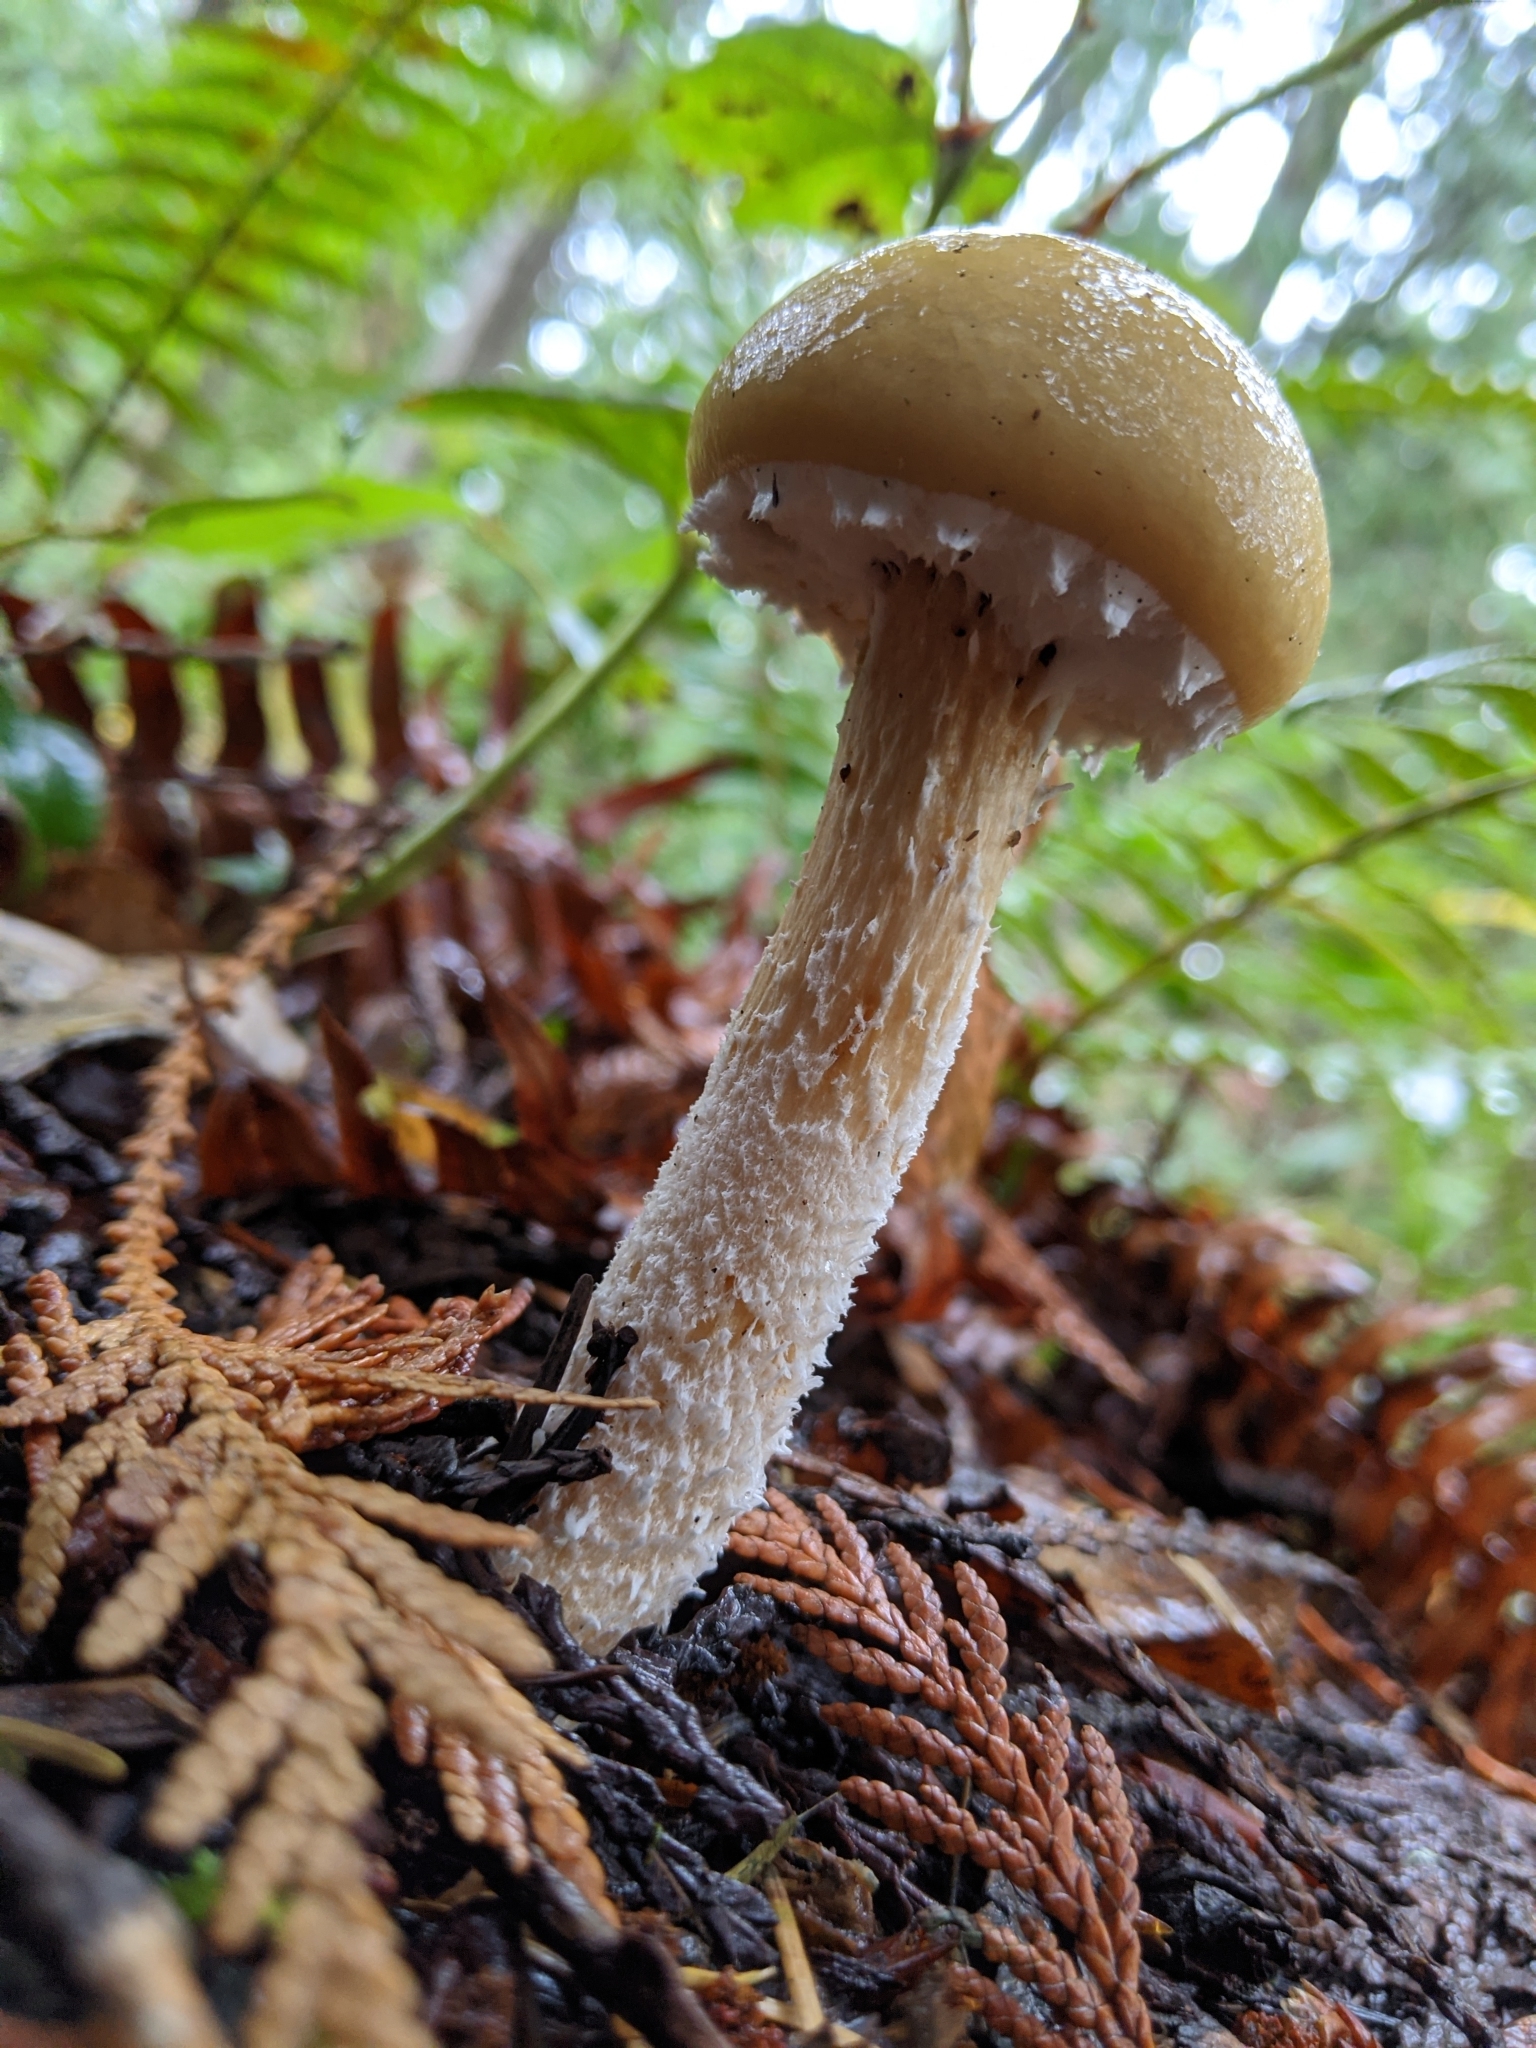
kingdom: Fungi
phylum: Basidiomycota
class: Agaricomycetes
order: Agaricales
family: Strophariaceae
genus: Stropharia
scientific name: Stropharia ambigua
